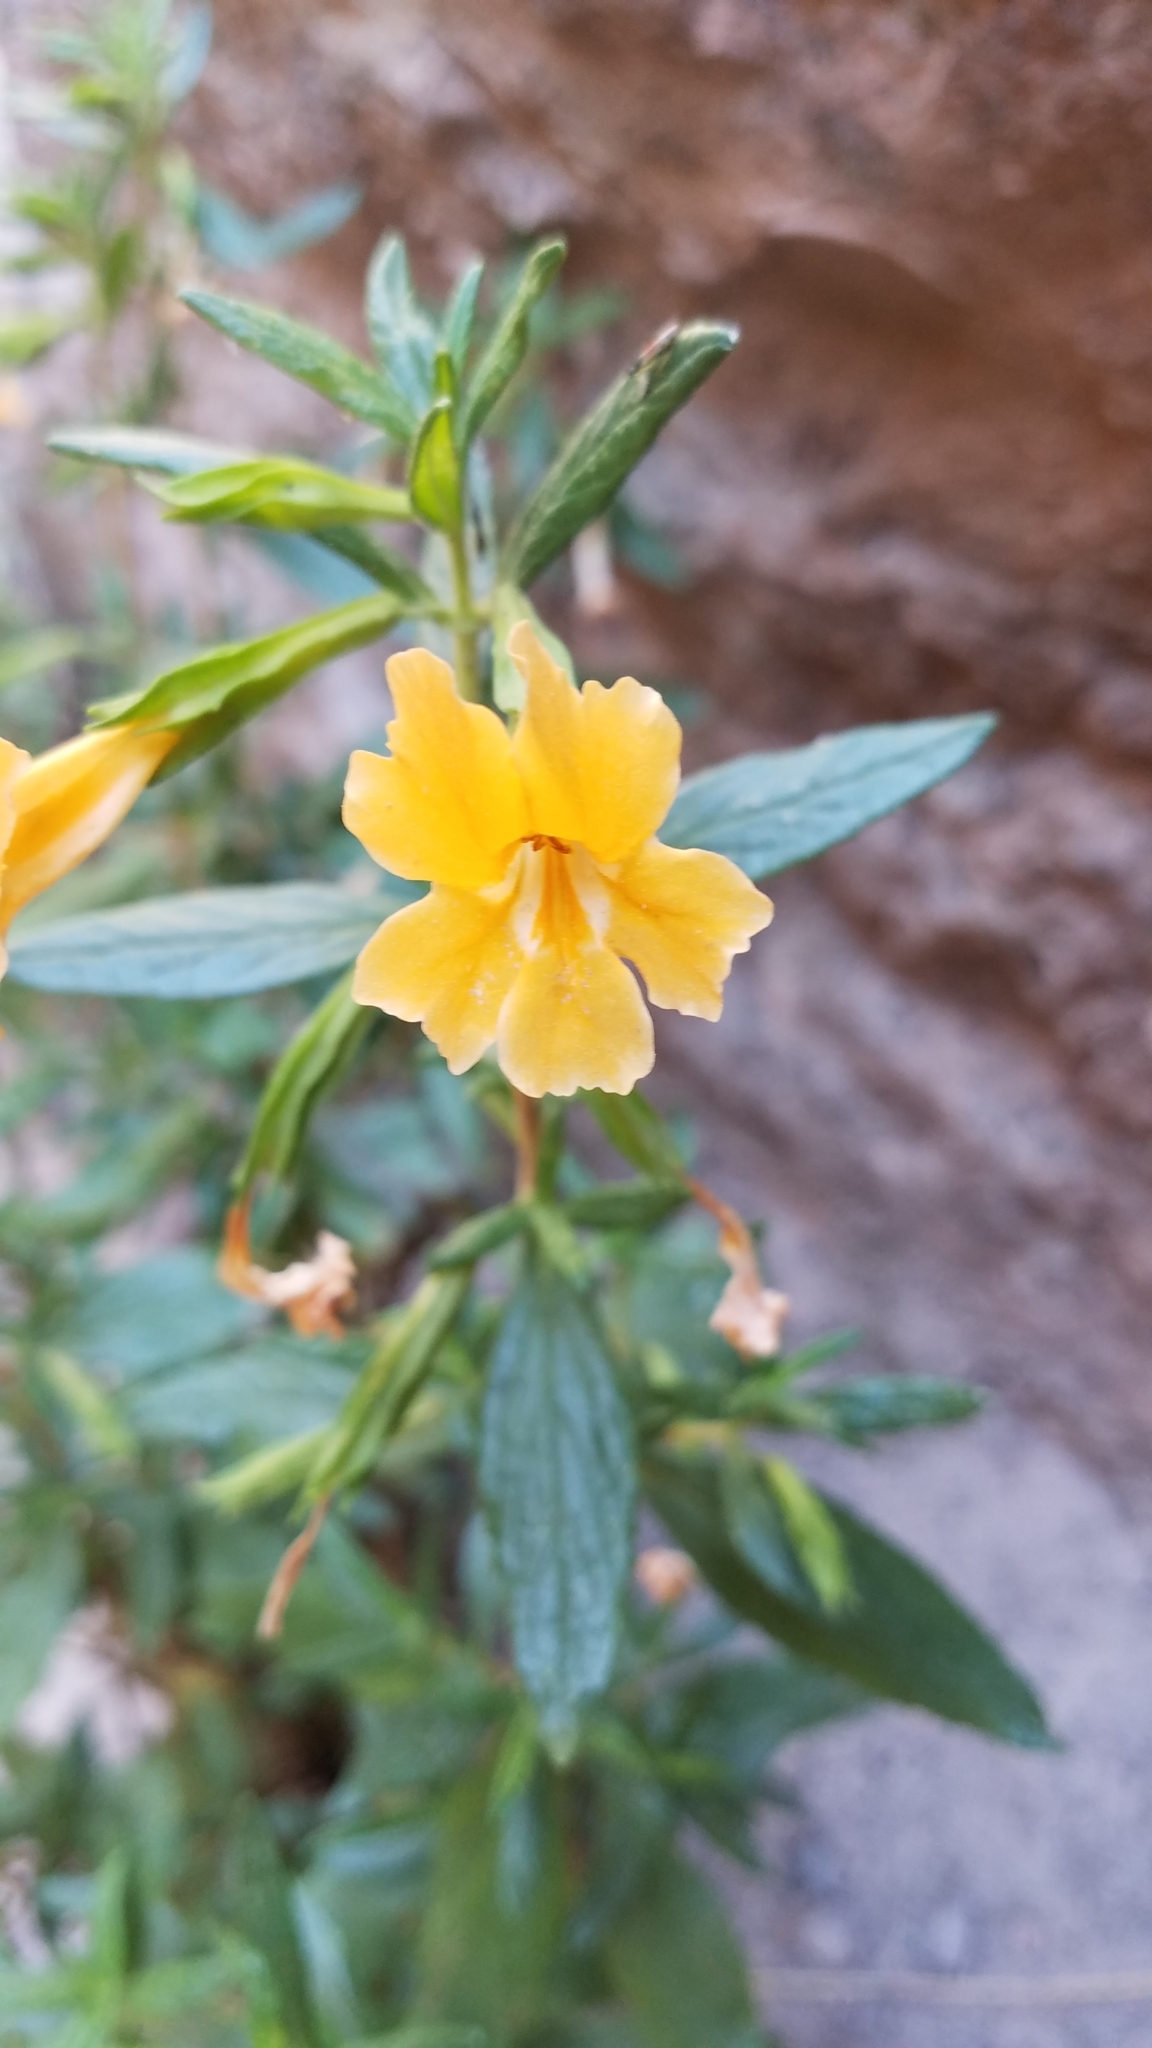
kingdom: Plantae
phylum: Tracheophyta
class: Magnoliopsida
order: Lamiales
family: Phrymaceae
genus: Diplacus
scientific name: Diplacus aurantiacus
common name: Bush monkey-flower
